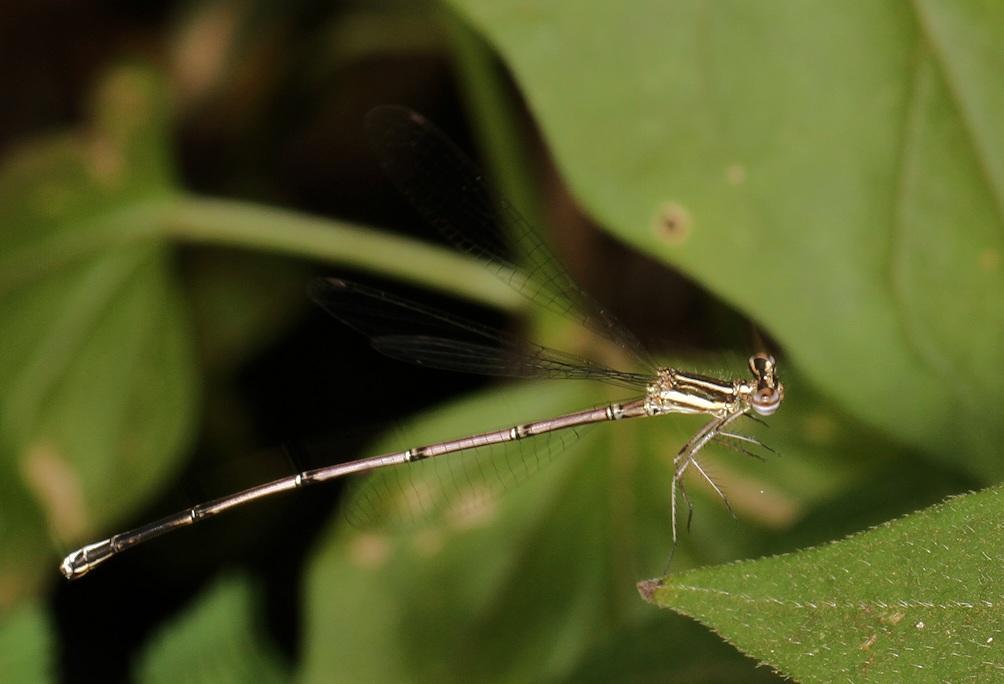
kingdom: Animalia
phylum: Arthropoda
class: Insecta
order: Odonata
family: Platycnemididae
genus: Elattoneura
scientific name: Elattoneura glauca
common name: Common threadtail
